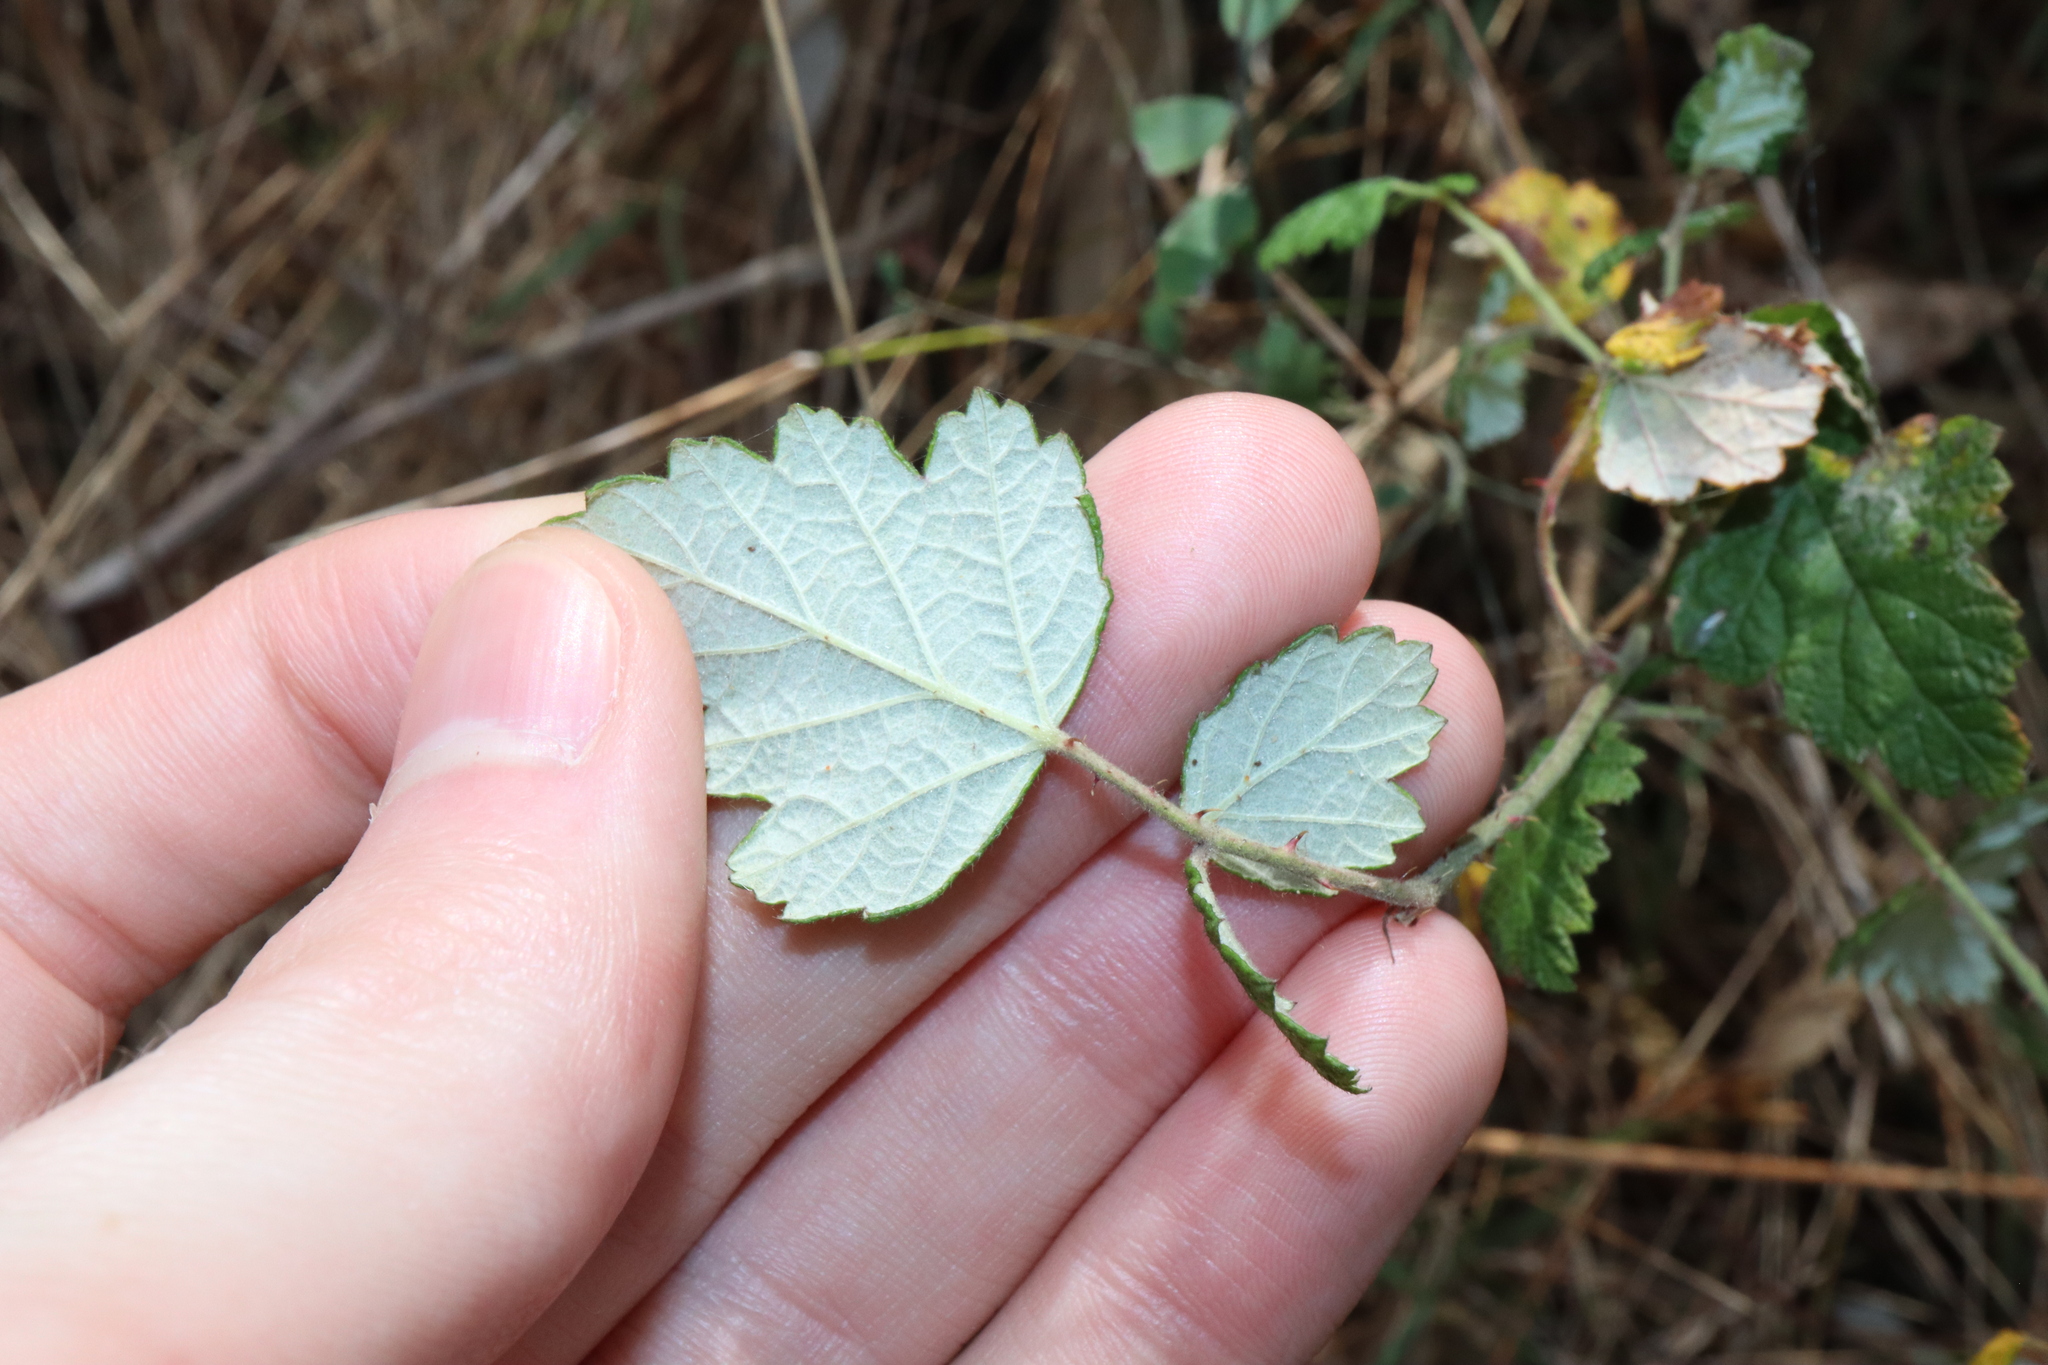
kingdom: Plantae
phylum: Tracheophyta
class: Magnoliopsida
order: Rosales
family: Rosaceae
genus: Rubus
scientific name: Rubus parvifolius
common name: Threeleaf blackberry
